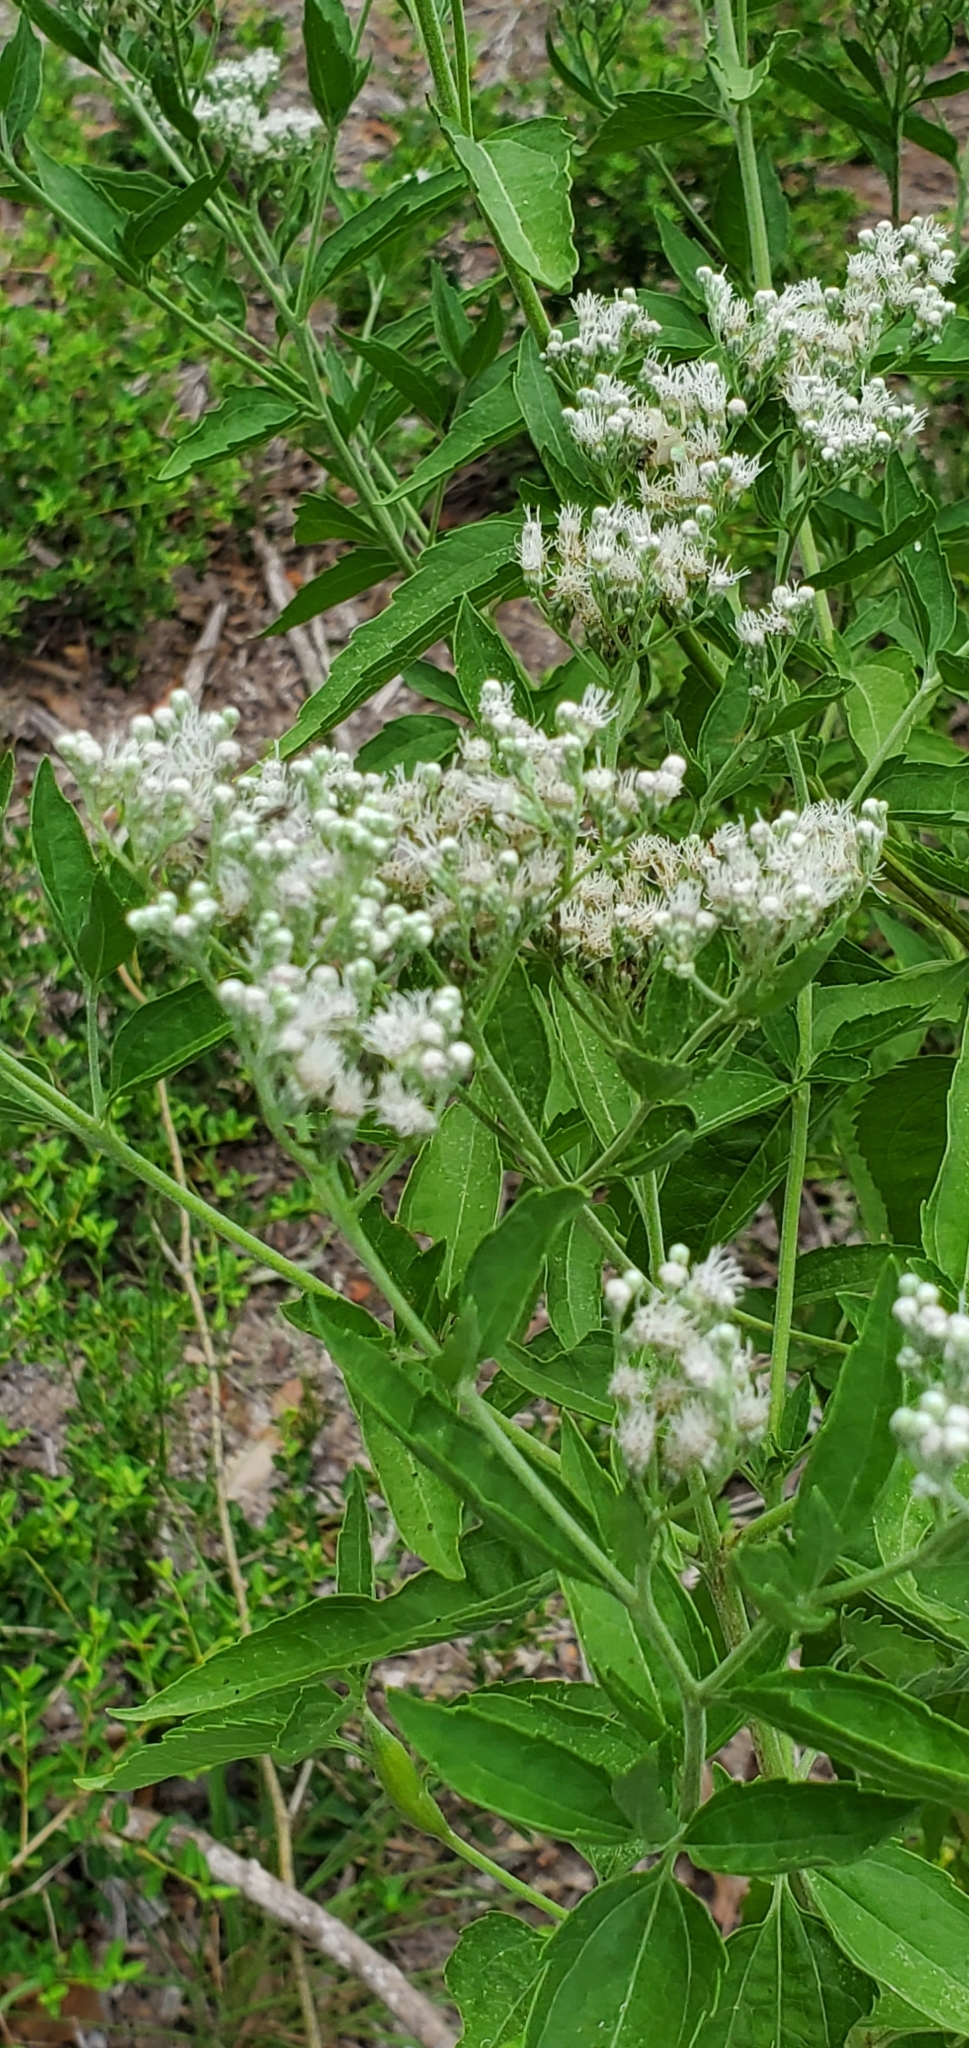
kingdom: Plantae
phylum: Tracheophyta
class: Magnoliopsida
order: Asterales
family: Asteraceae
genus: Eupatorium
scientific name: Eupatorium serotinum
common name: Late boneset
